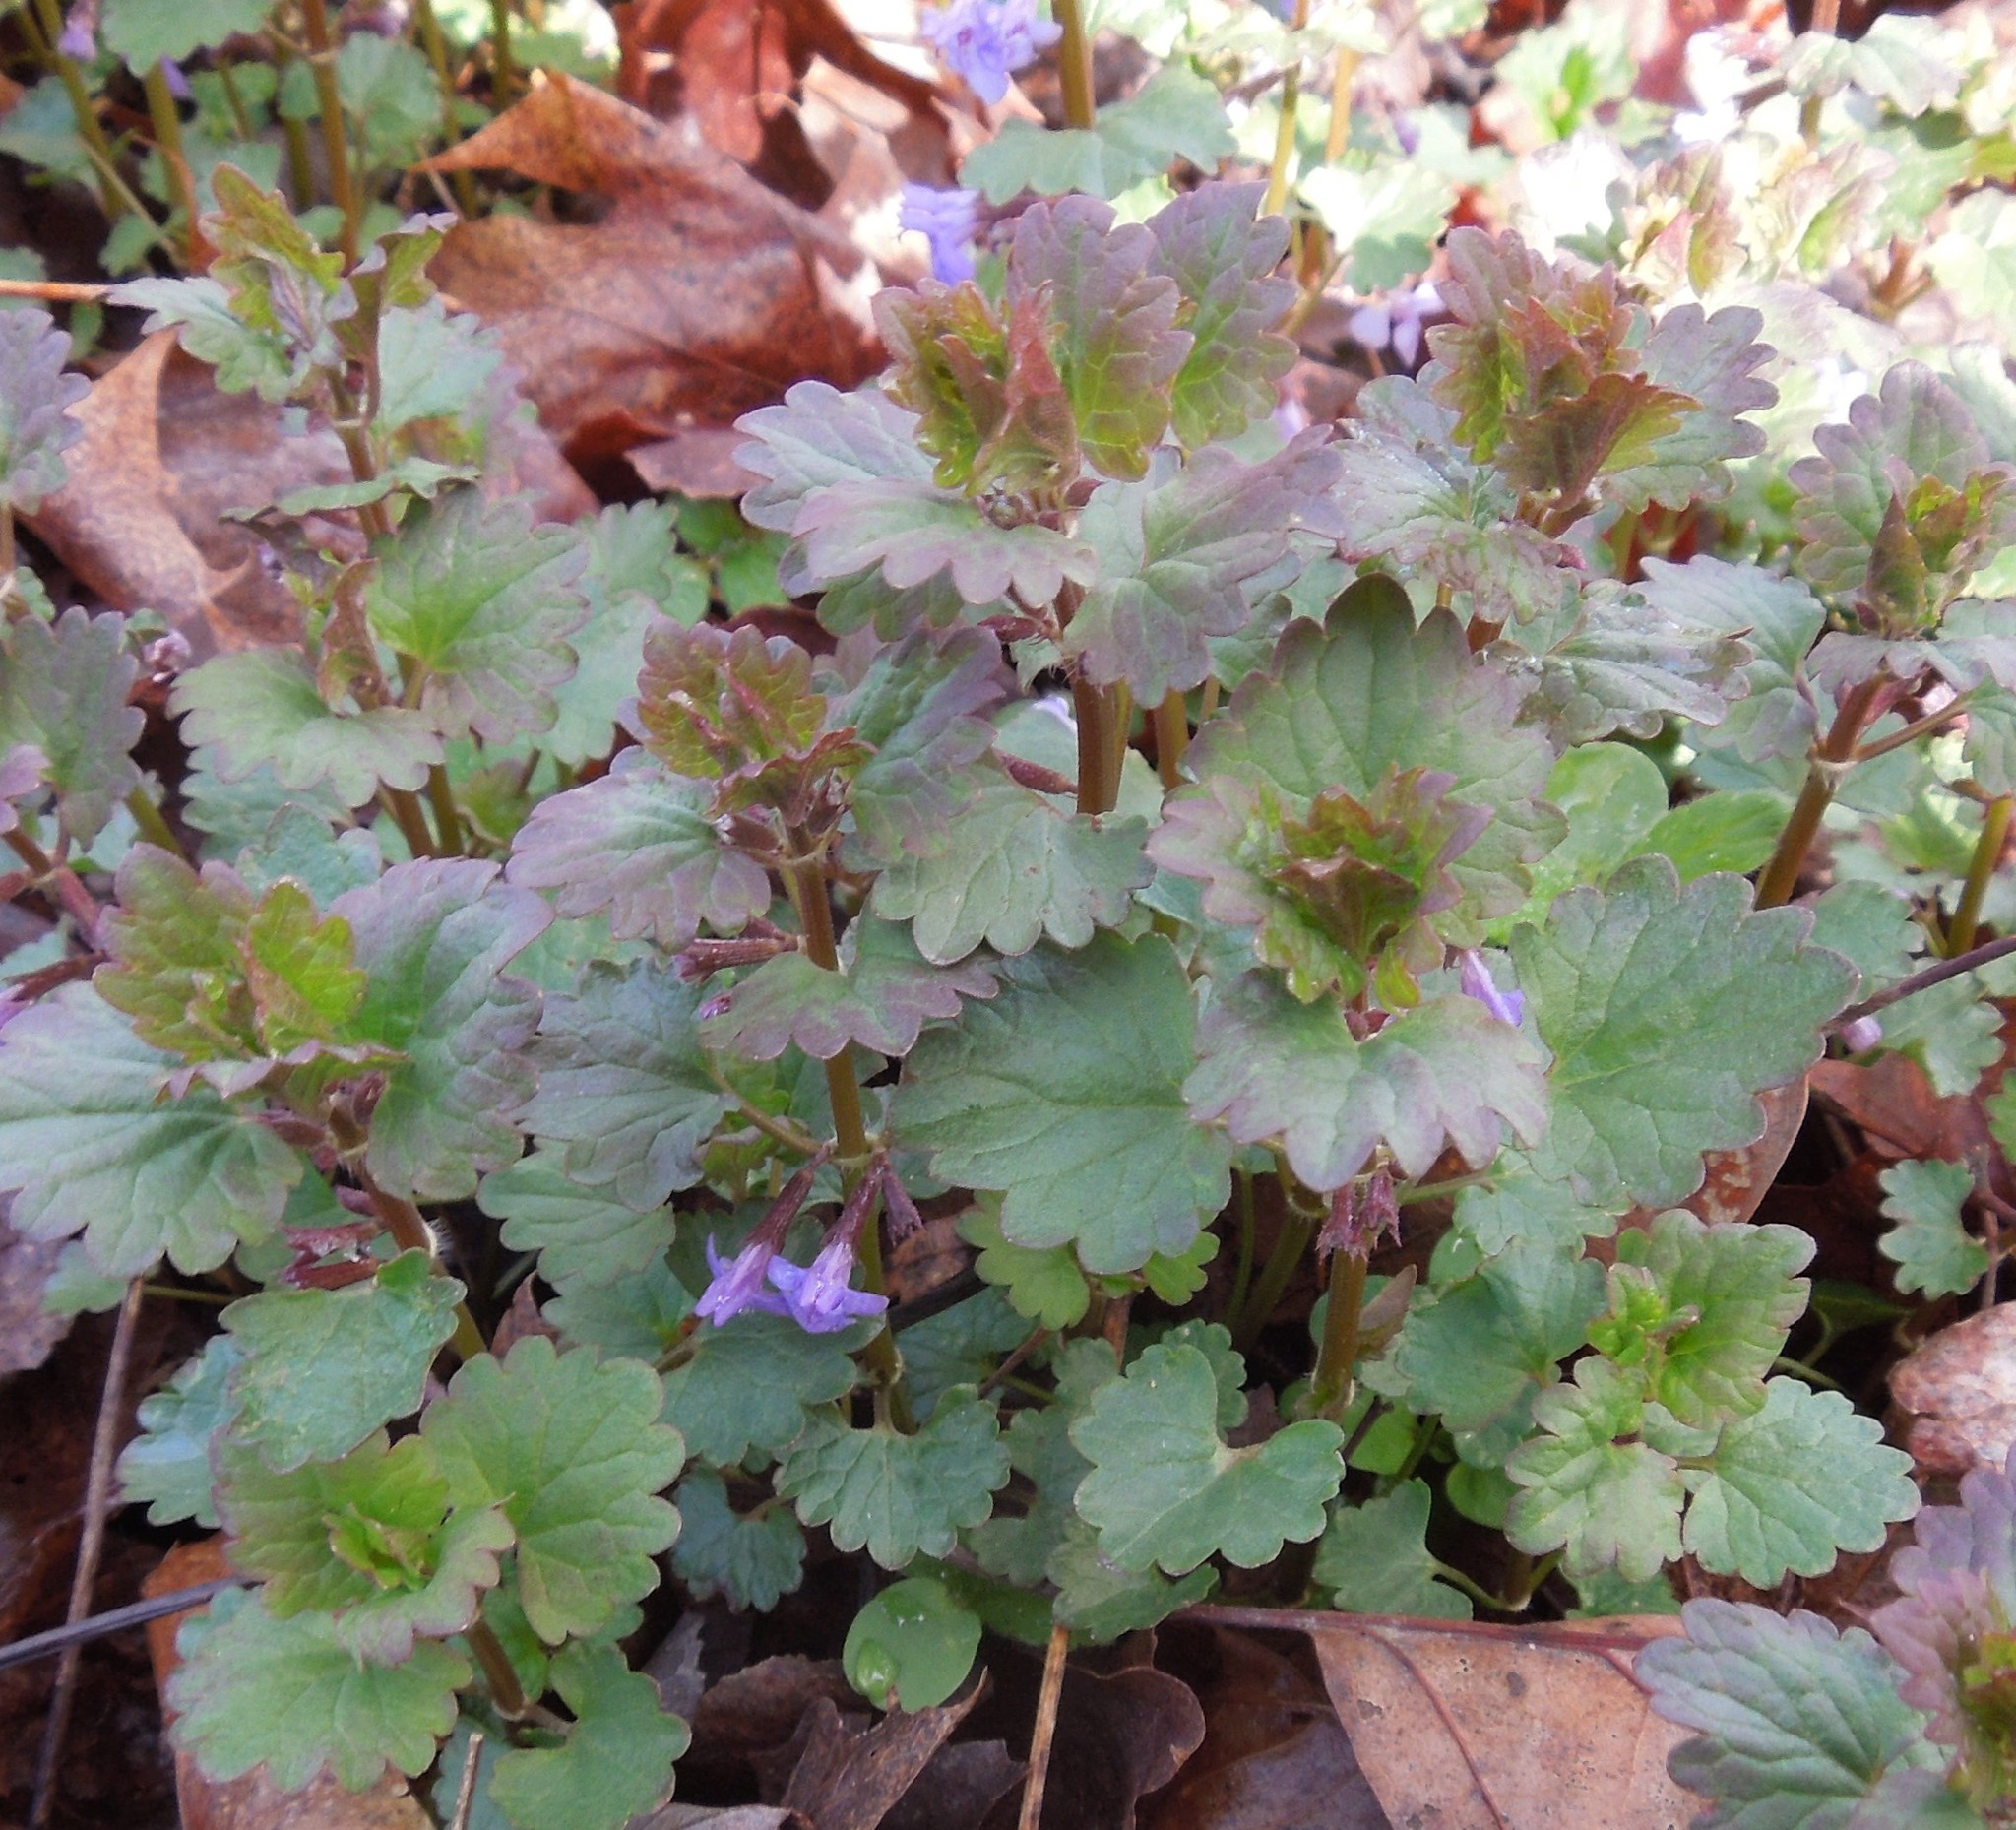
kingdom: Plantae
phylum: Tracheophyta
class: Magnoliopsida
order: Lamiales
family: Lamiaceae
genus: Glechoma
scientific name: Glechoma hederacea
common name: Ground ivy
